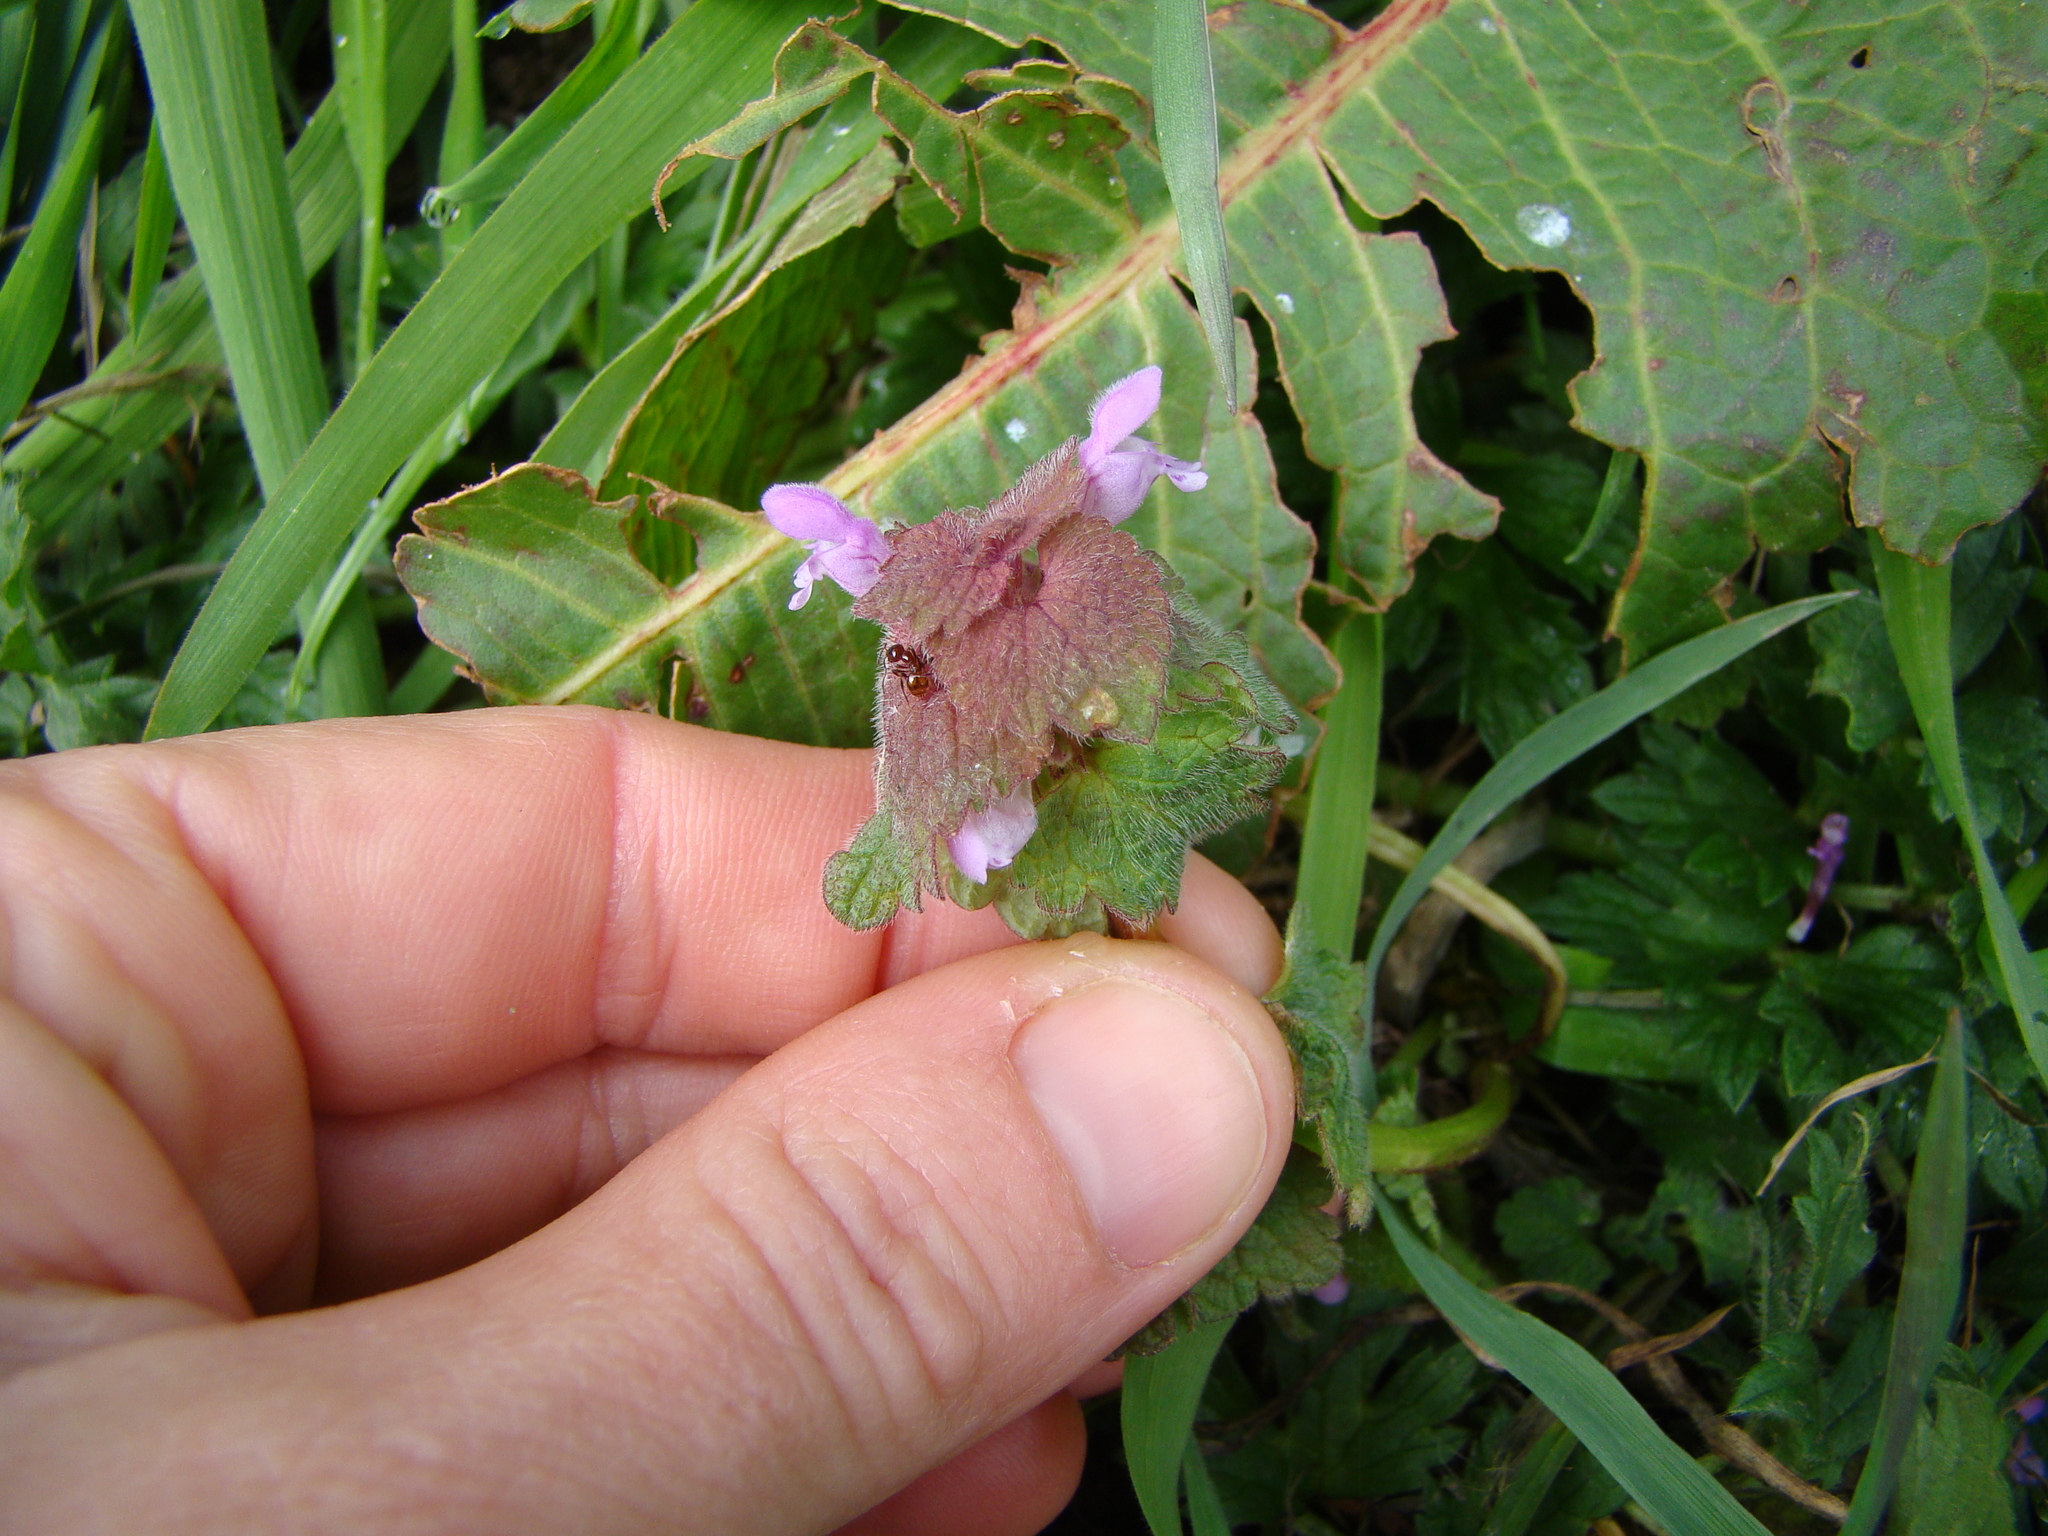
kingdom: Plantae
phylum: Tracheophyta
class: Magnoliopsida
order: Lamiales
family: Lamiaceae
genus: Lamium
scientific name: Lamium purpureum
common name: Red dead-nettle
